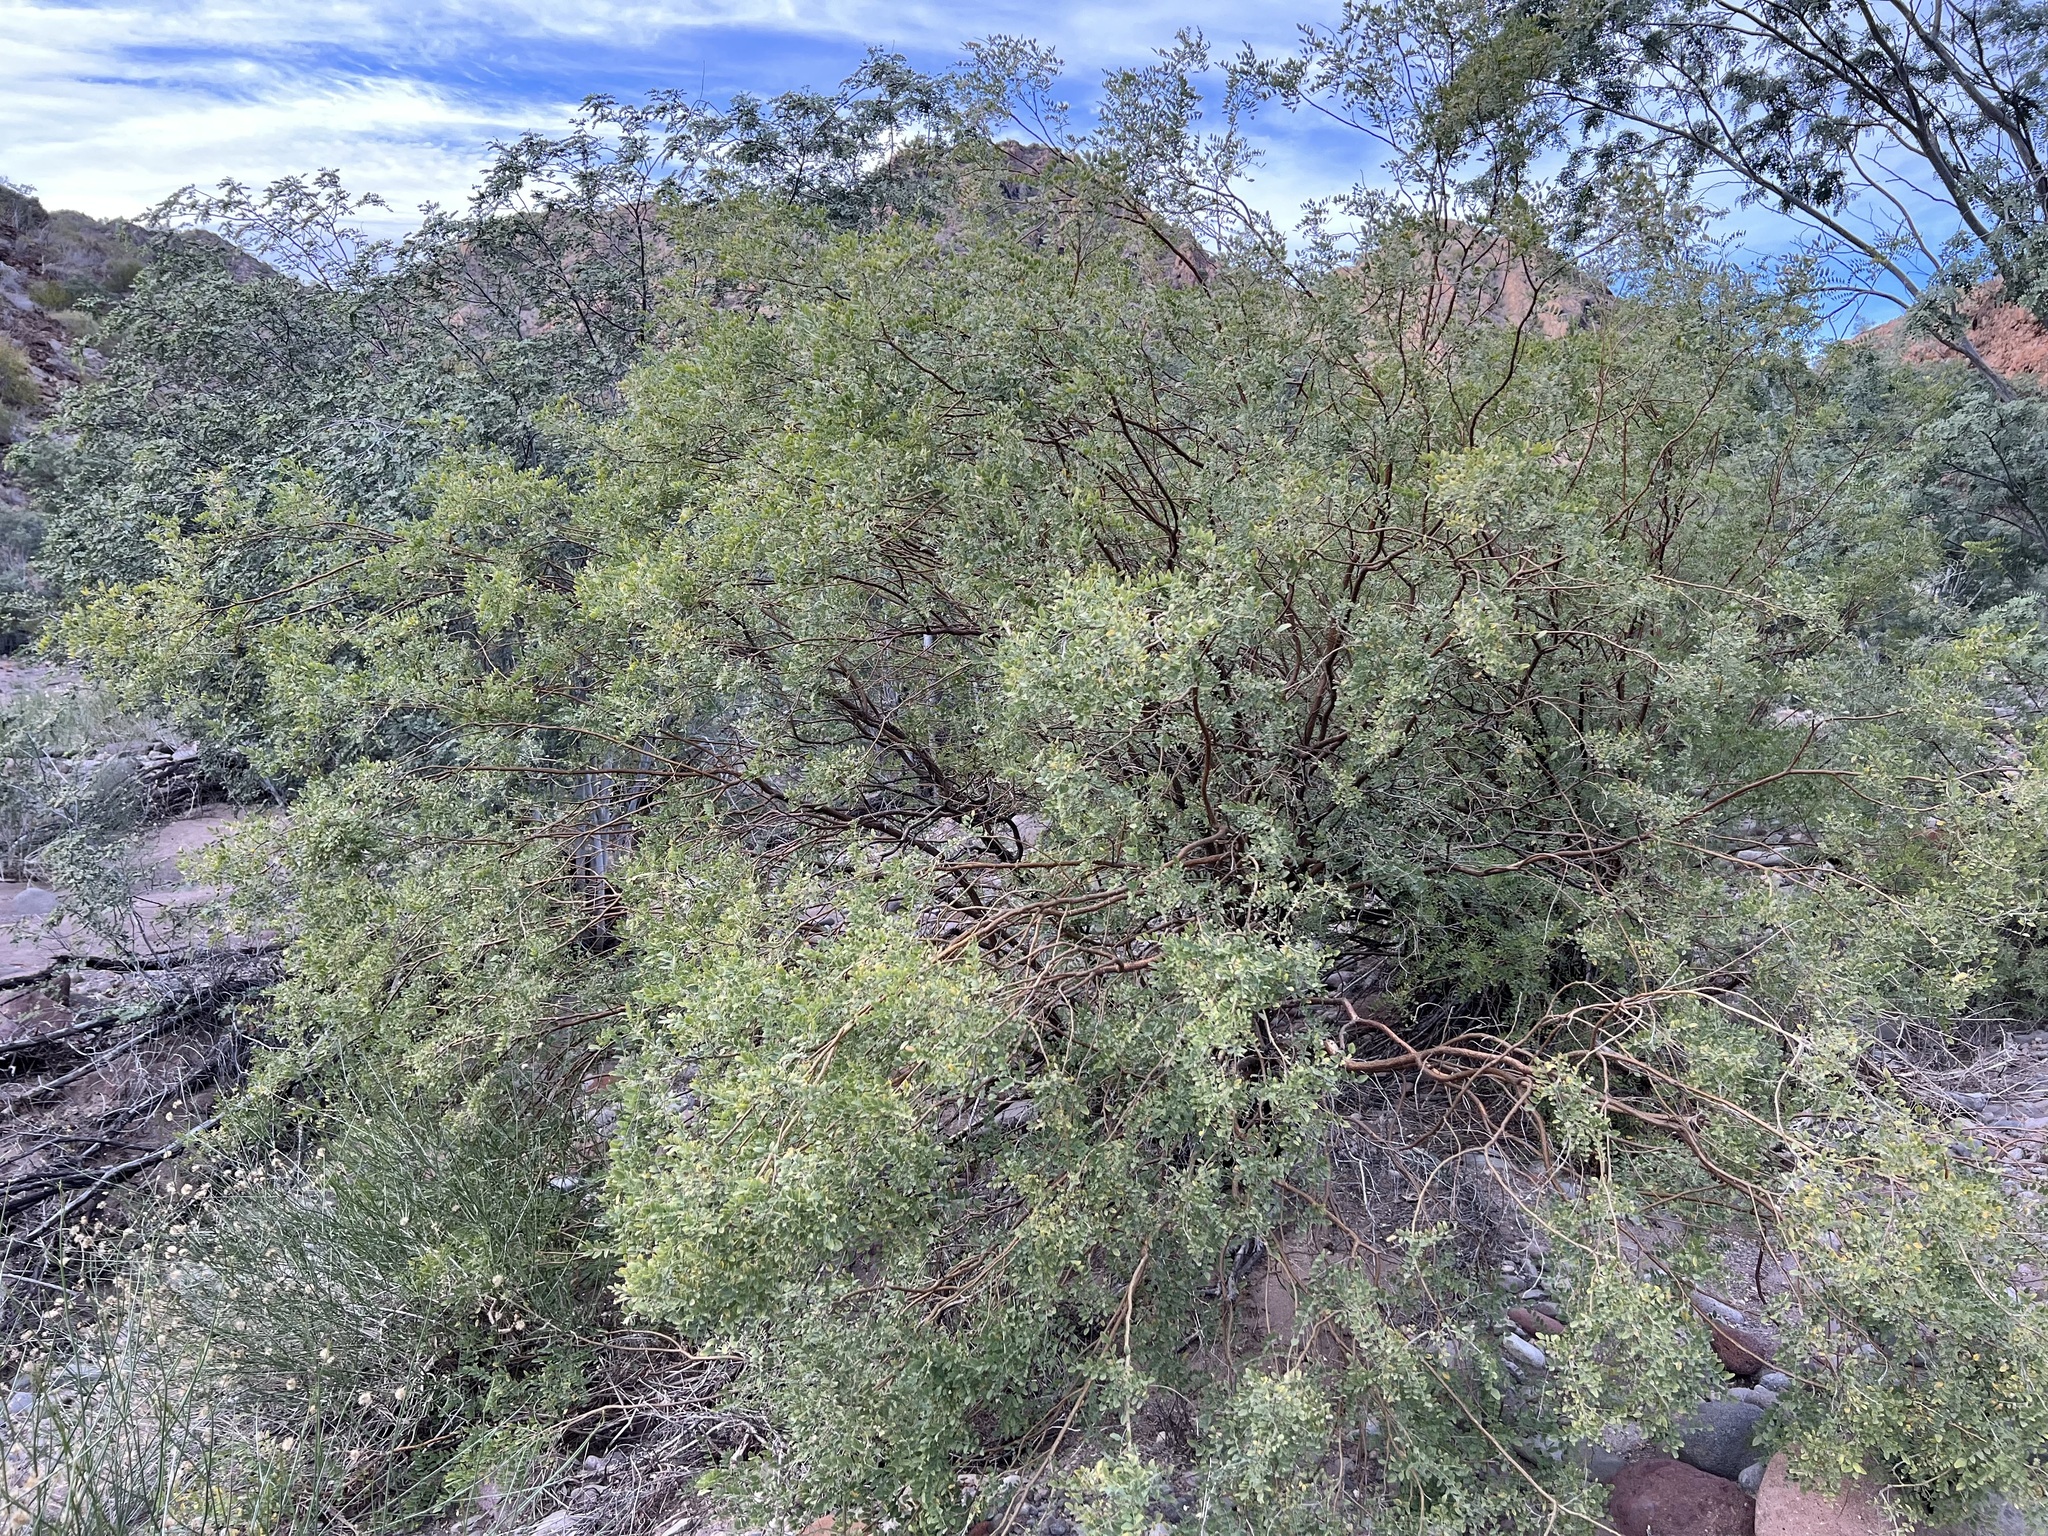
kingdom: Plantae
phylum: Tracheophyta
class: Magnoliopsida
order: Fabales
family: Fabaceae
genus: Brongniartia
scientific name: Brongniartia peninsularis
